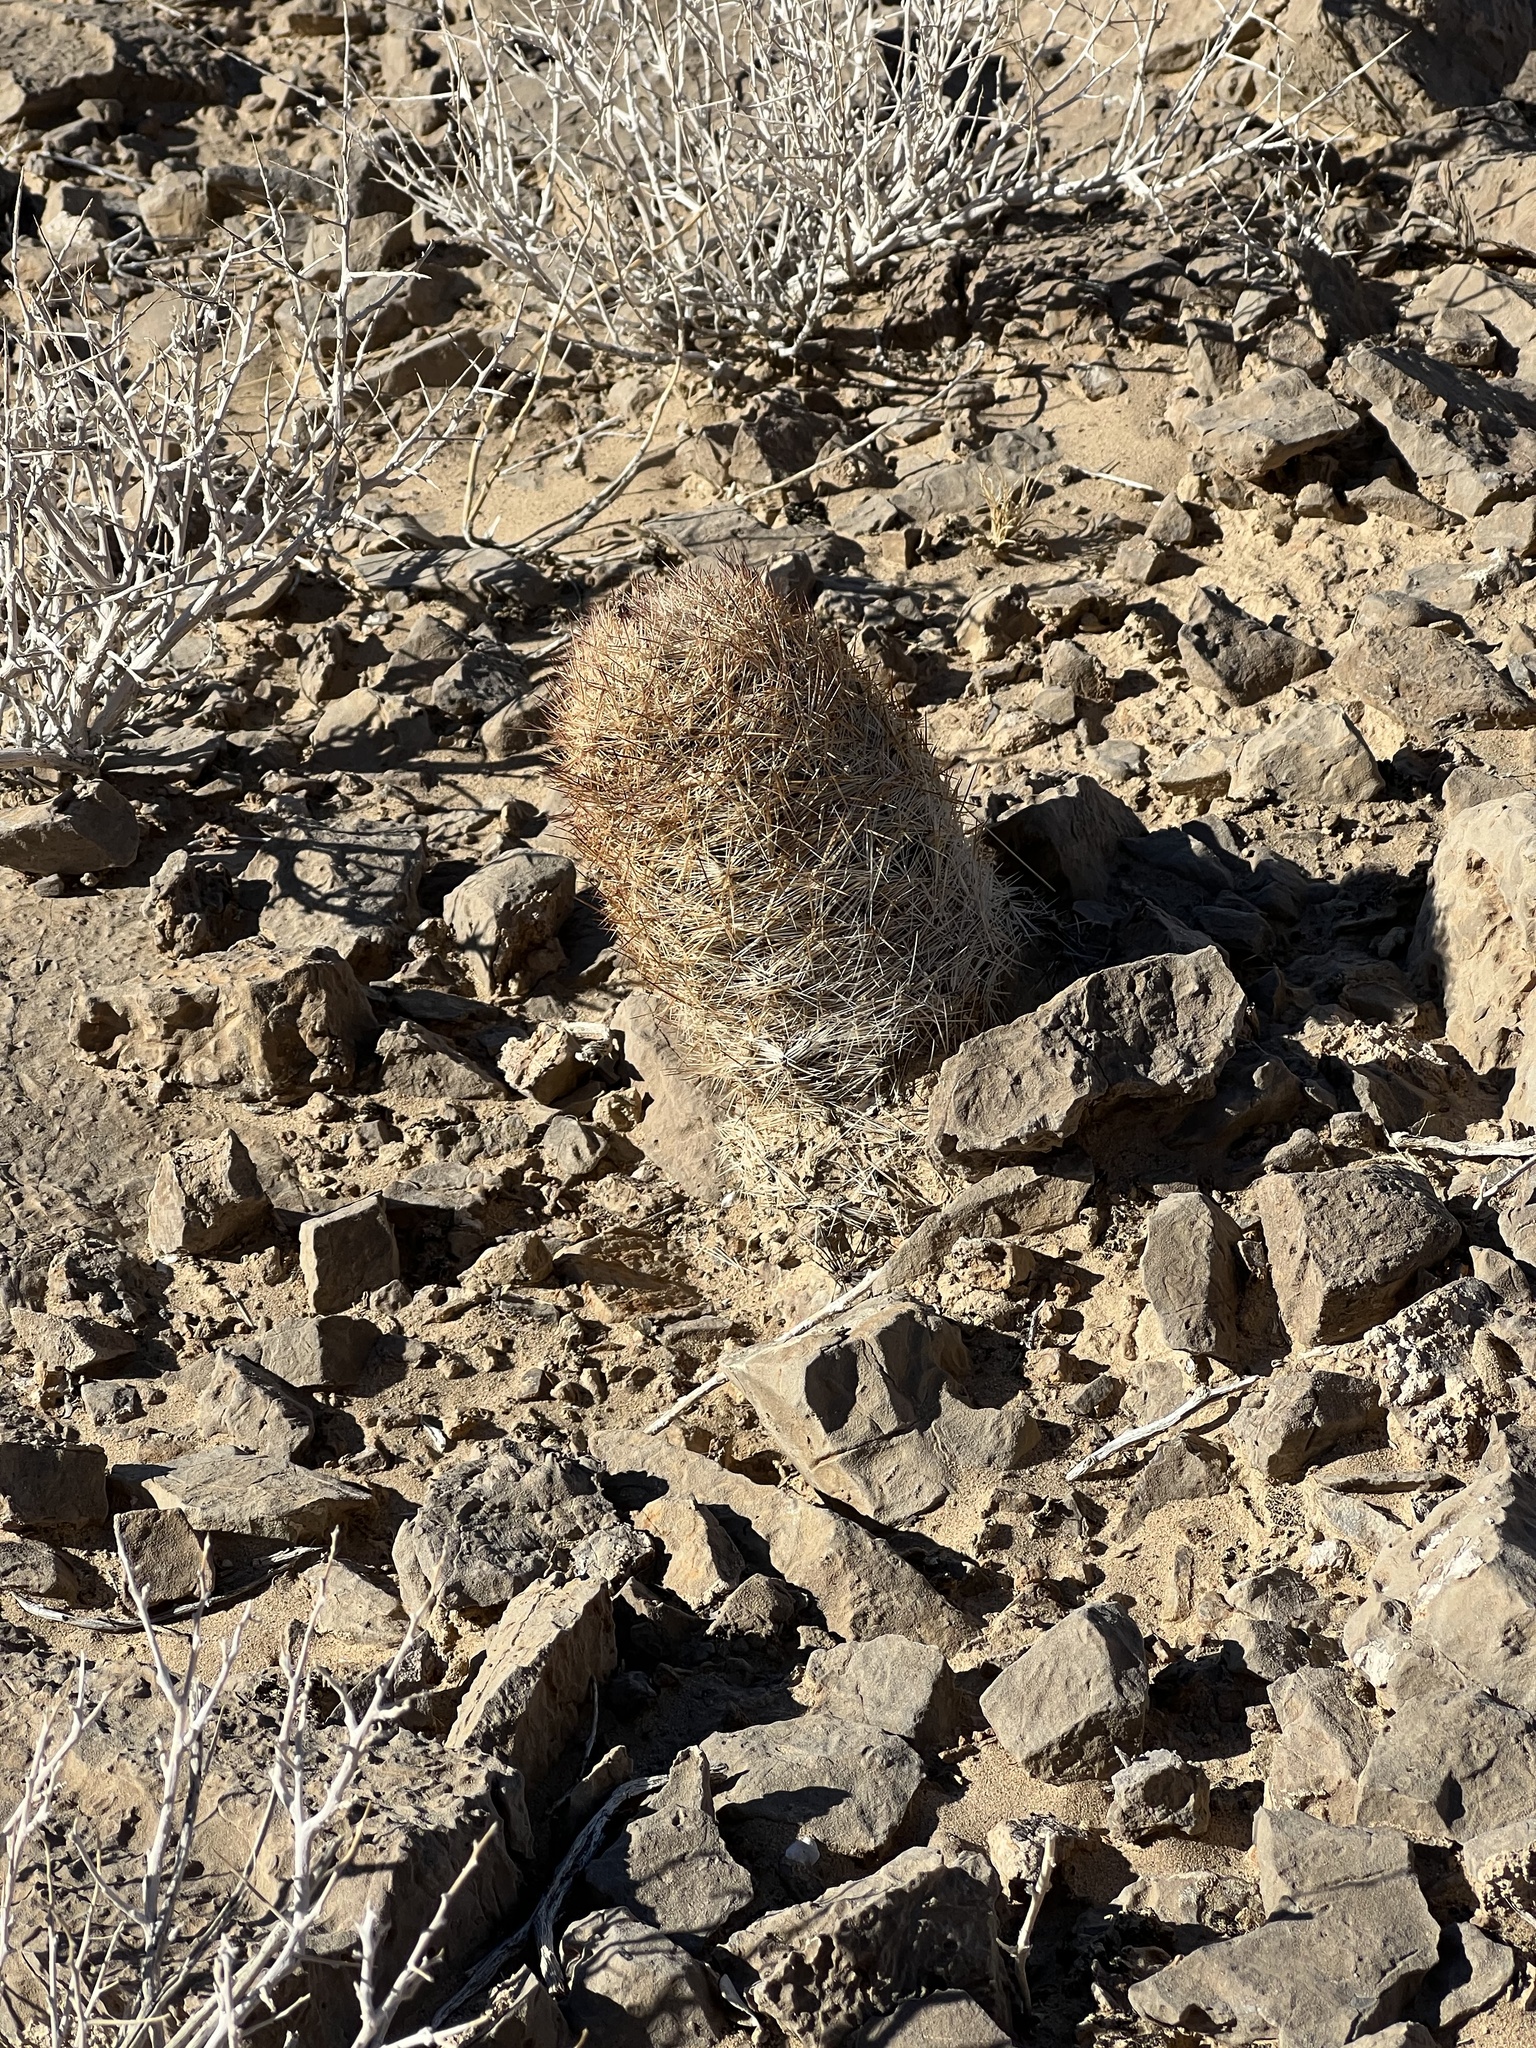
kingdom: Plantae
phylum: Tracheophyta
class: Magnoliopsida
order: Caryophyllales
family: Cactaceae
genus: Pelecyphora
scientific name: Pelecyphora dasyacantha
